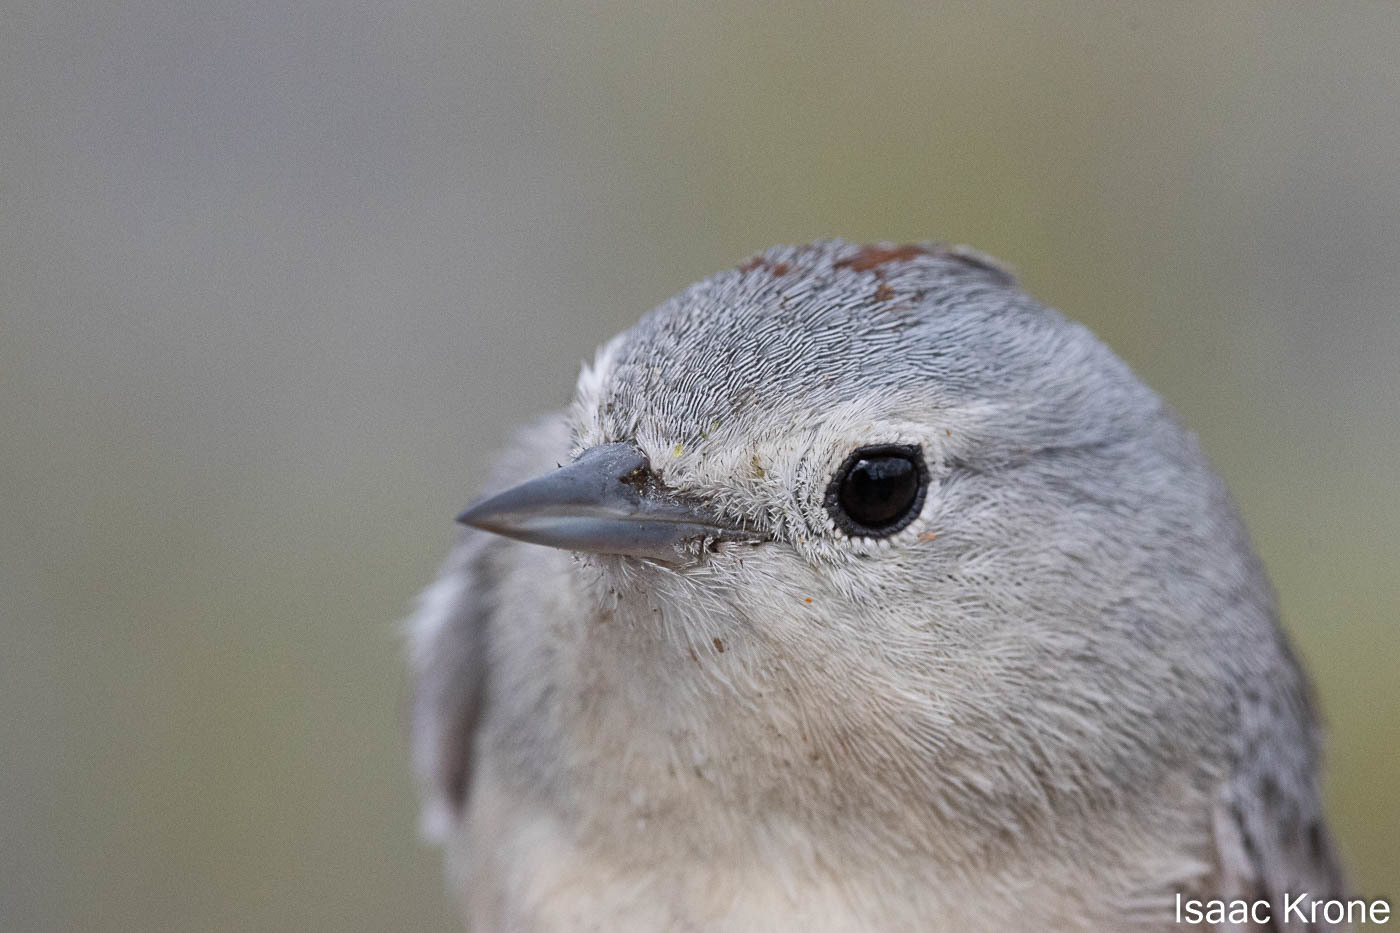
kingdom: Animalia
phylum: Chordata
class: Aves
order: Passeriformes
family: Parulidae
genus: Leiothlypis
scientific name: Leiothlypis luciae
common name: Lucy's warbler
